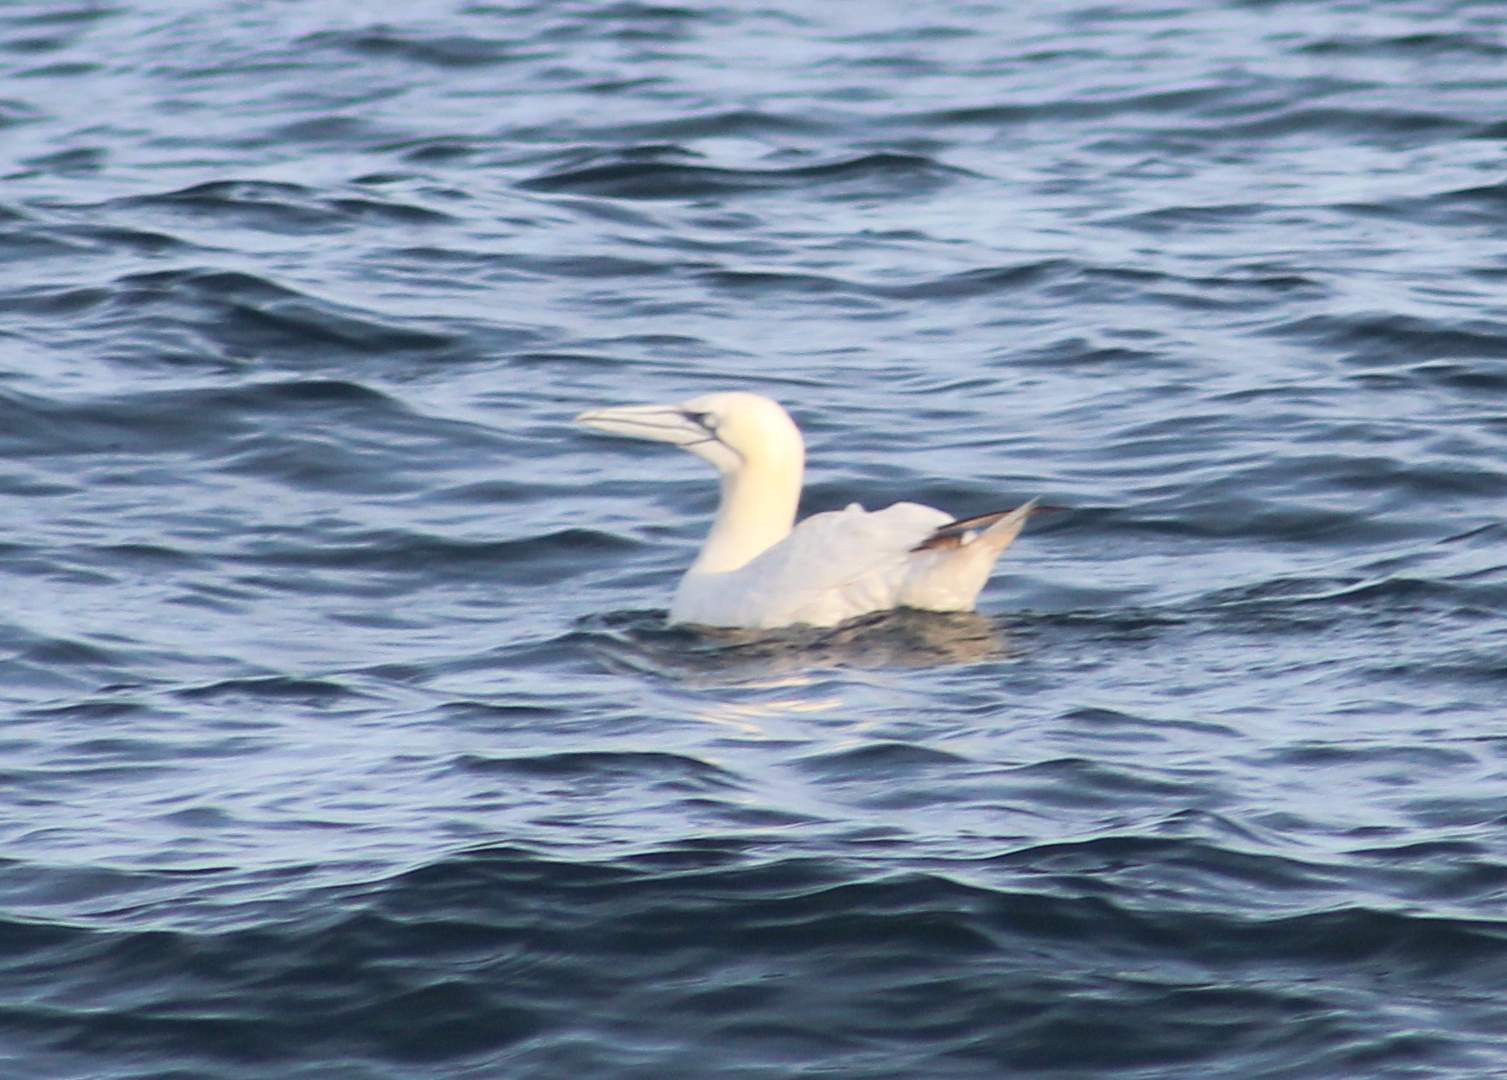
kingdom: Animalia
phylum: Chordata
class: Aves
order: Suliformes
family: Sulidae
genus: Morus
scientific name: Morus bassanus
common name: Northern gannet
